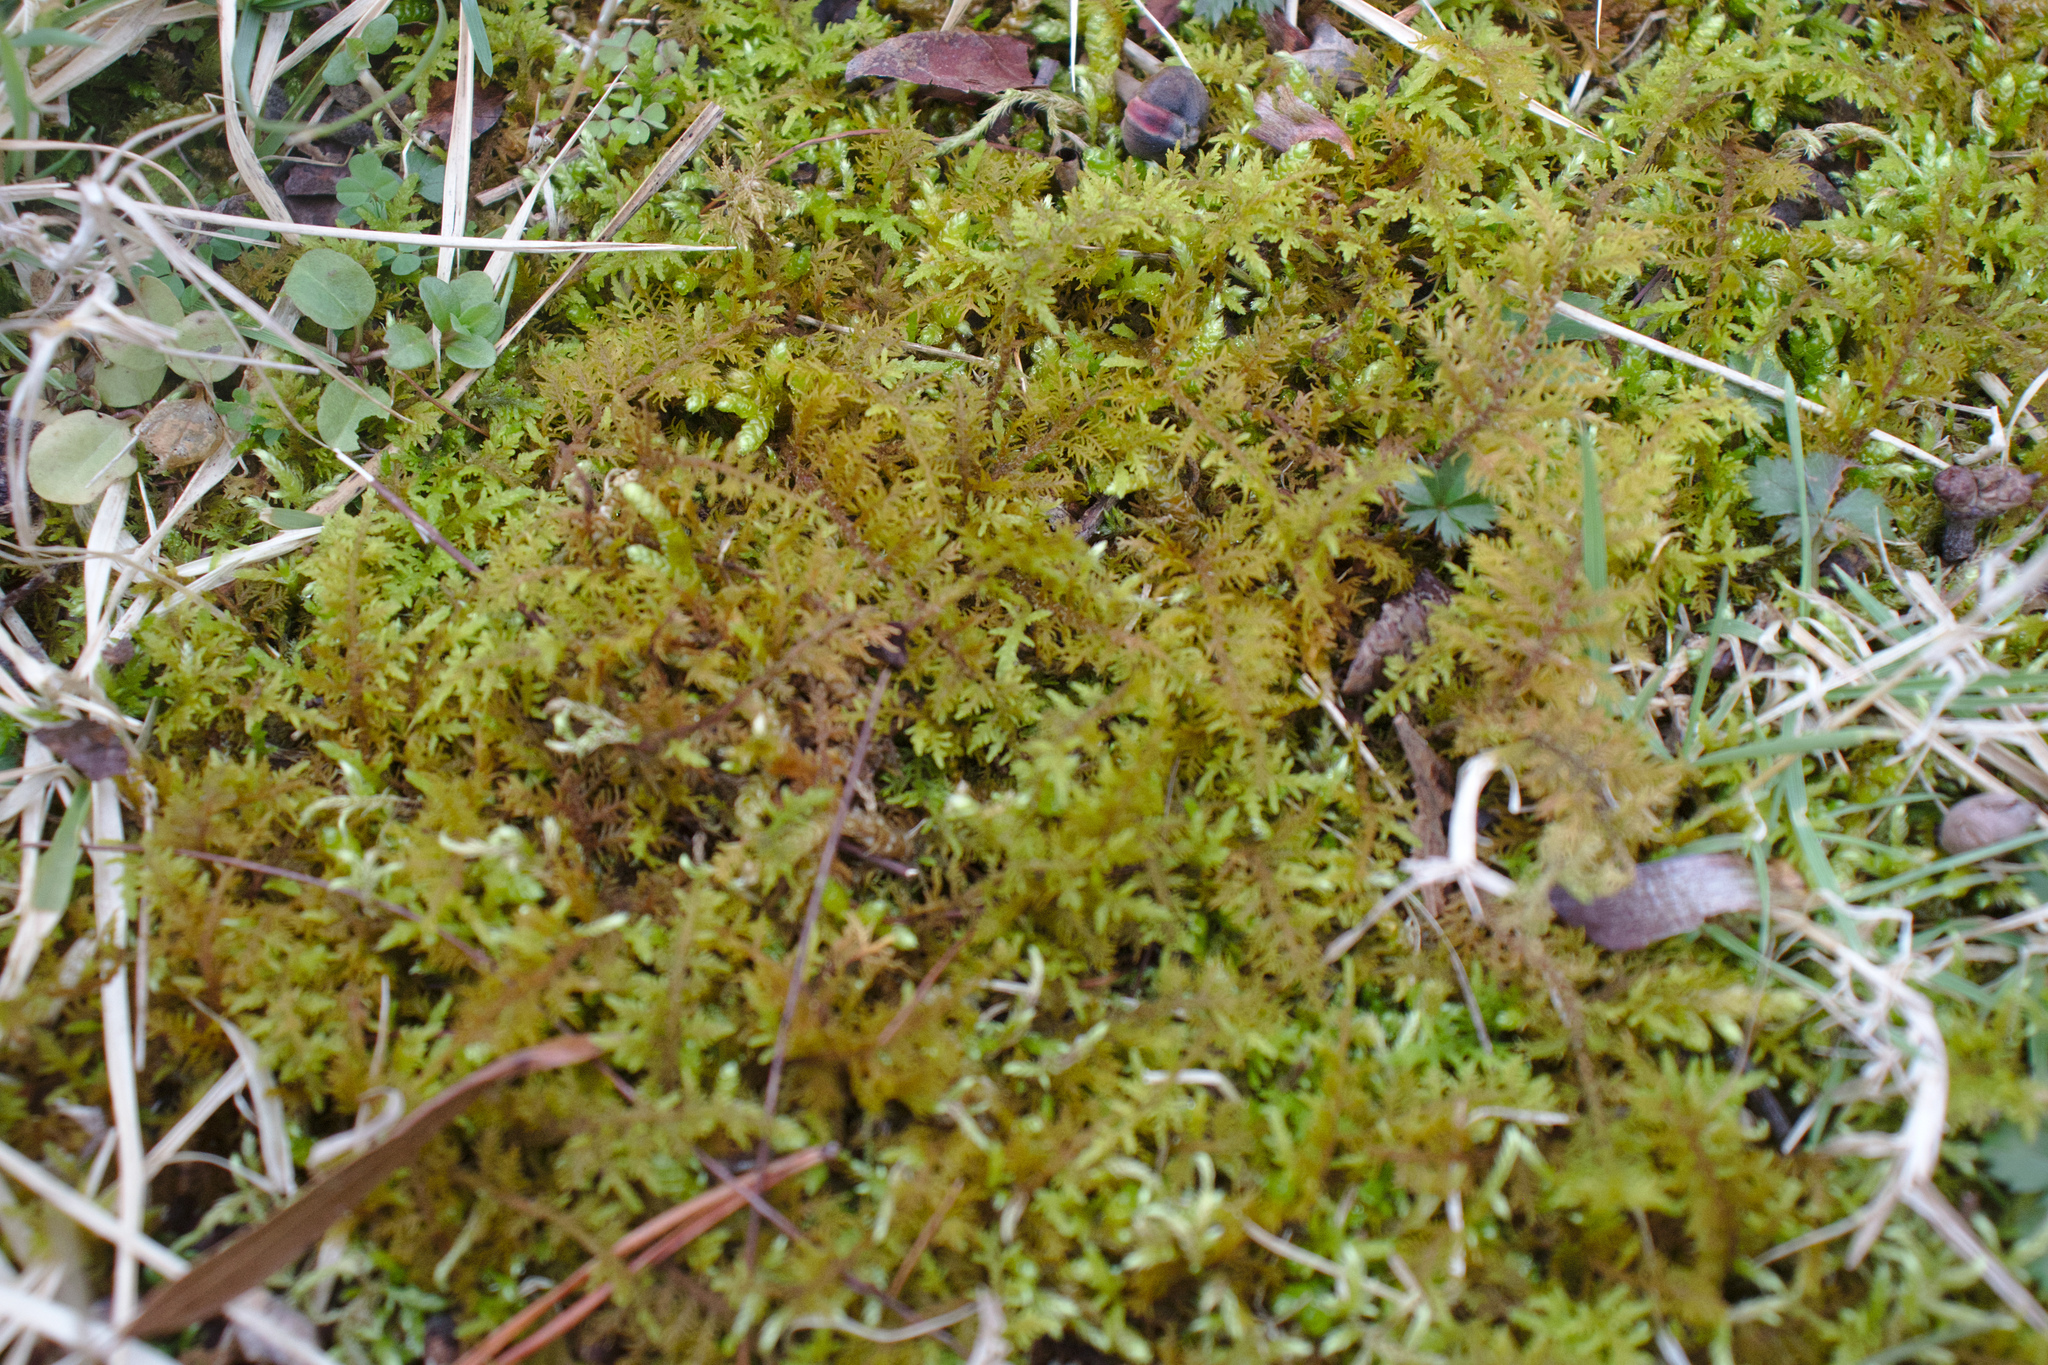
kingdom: Plantae
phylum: Bryophyta
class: Bryopsida
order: Hypnales
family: Thuidiaceae
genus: Thuidium
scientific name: Thuidium delicatulum
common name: Delicate fern moss
